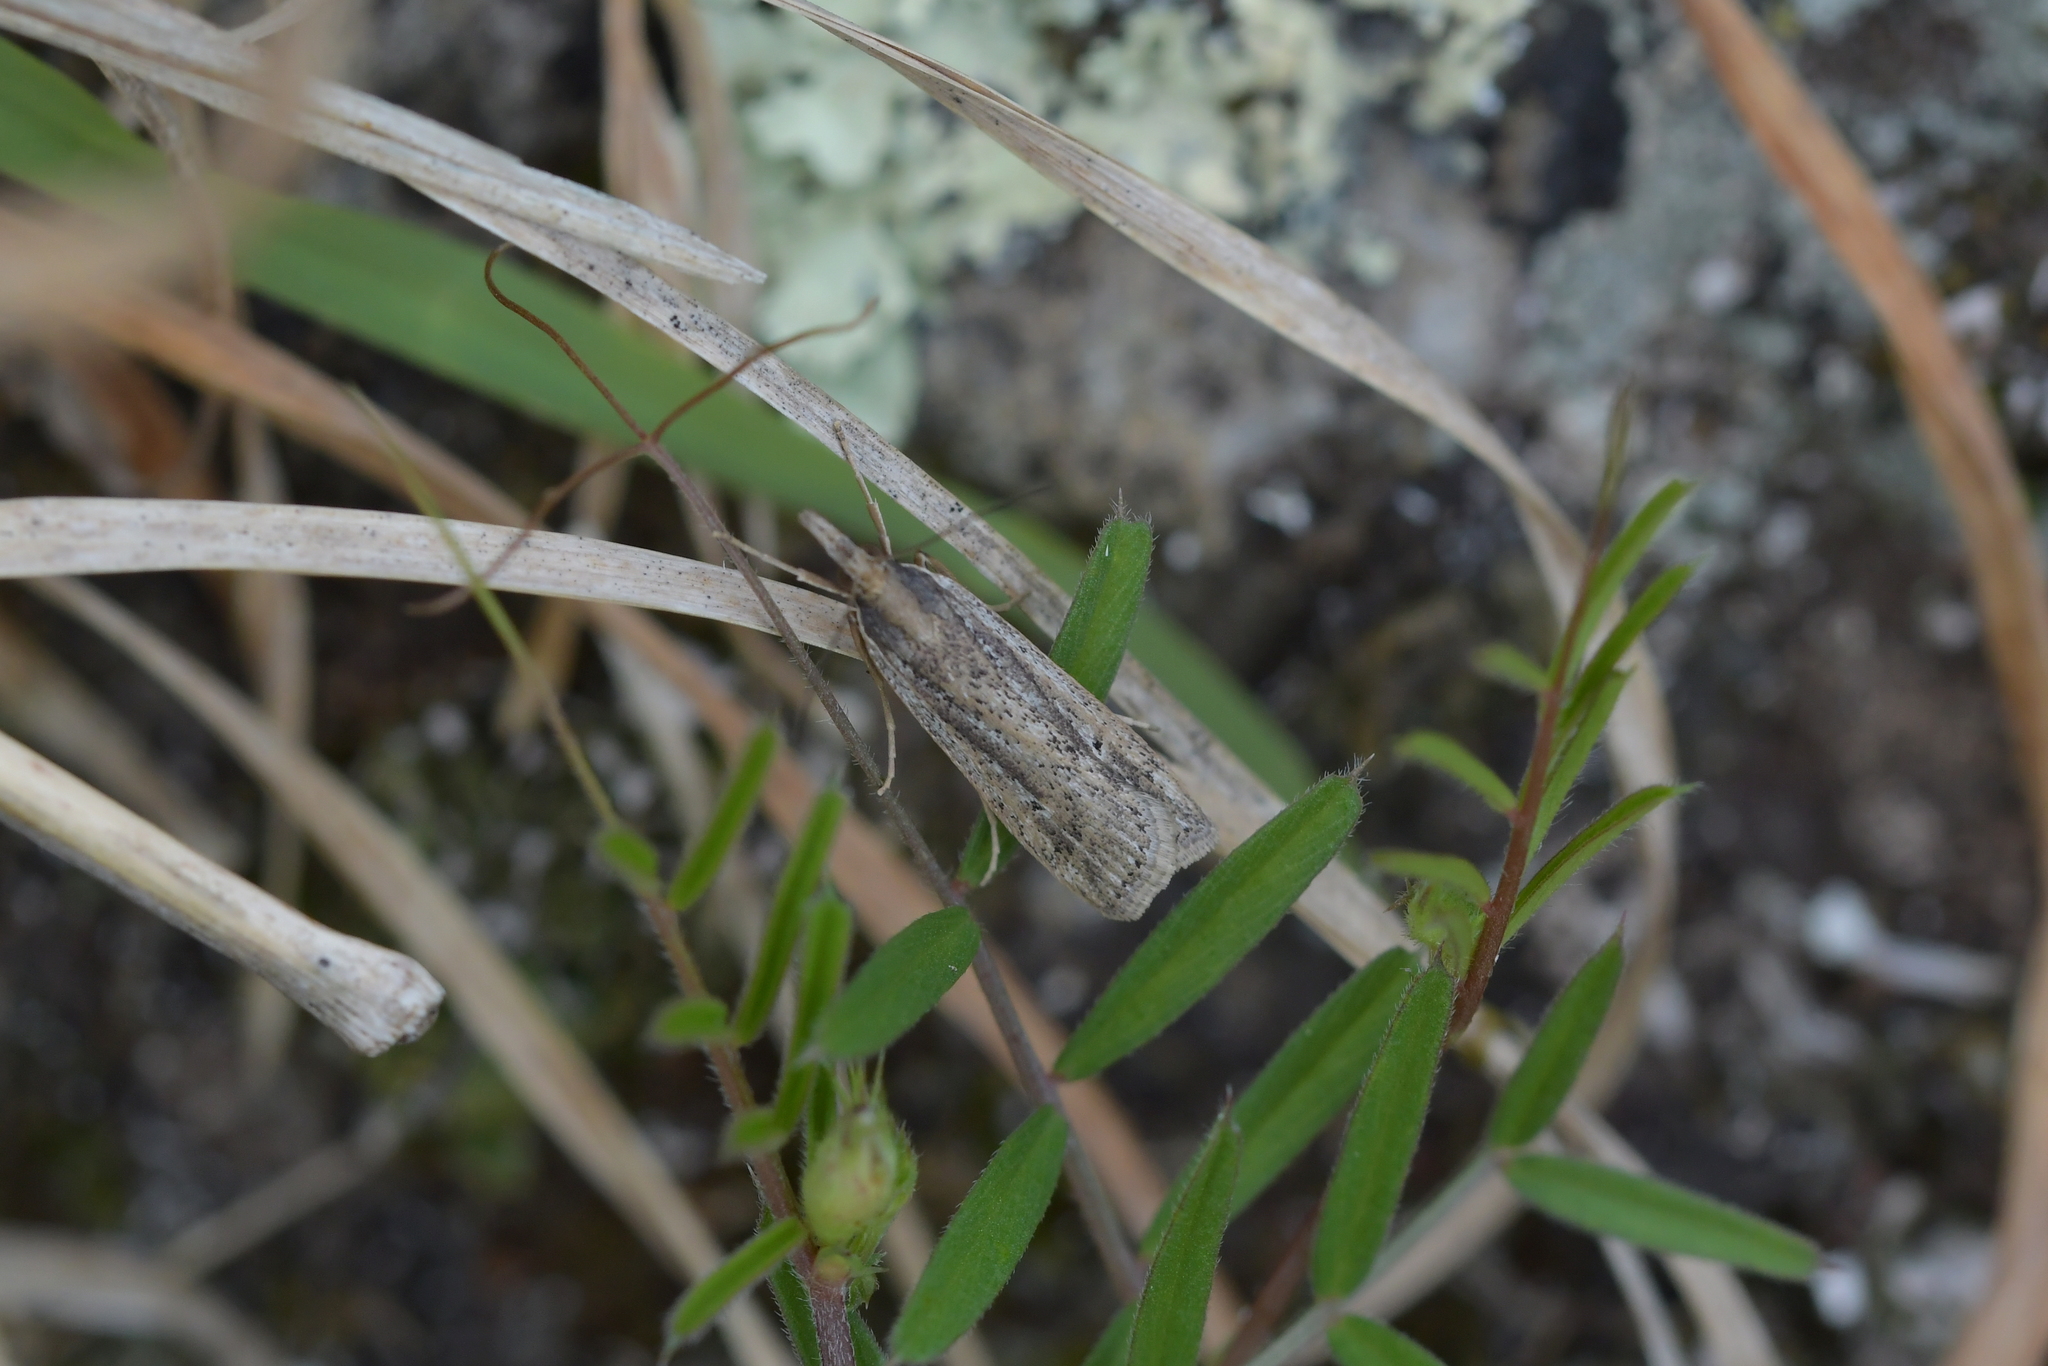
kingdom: Animalia
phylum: Arthropoda
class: Insecta
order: Lepidoptera
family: Crambidae
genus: Eudonia
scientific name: Eudonia sabulosella
